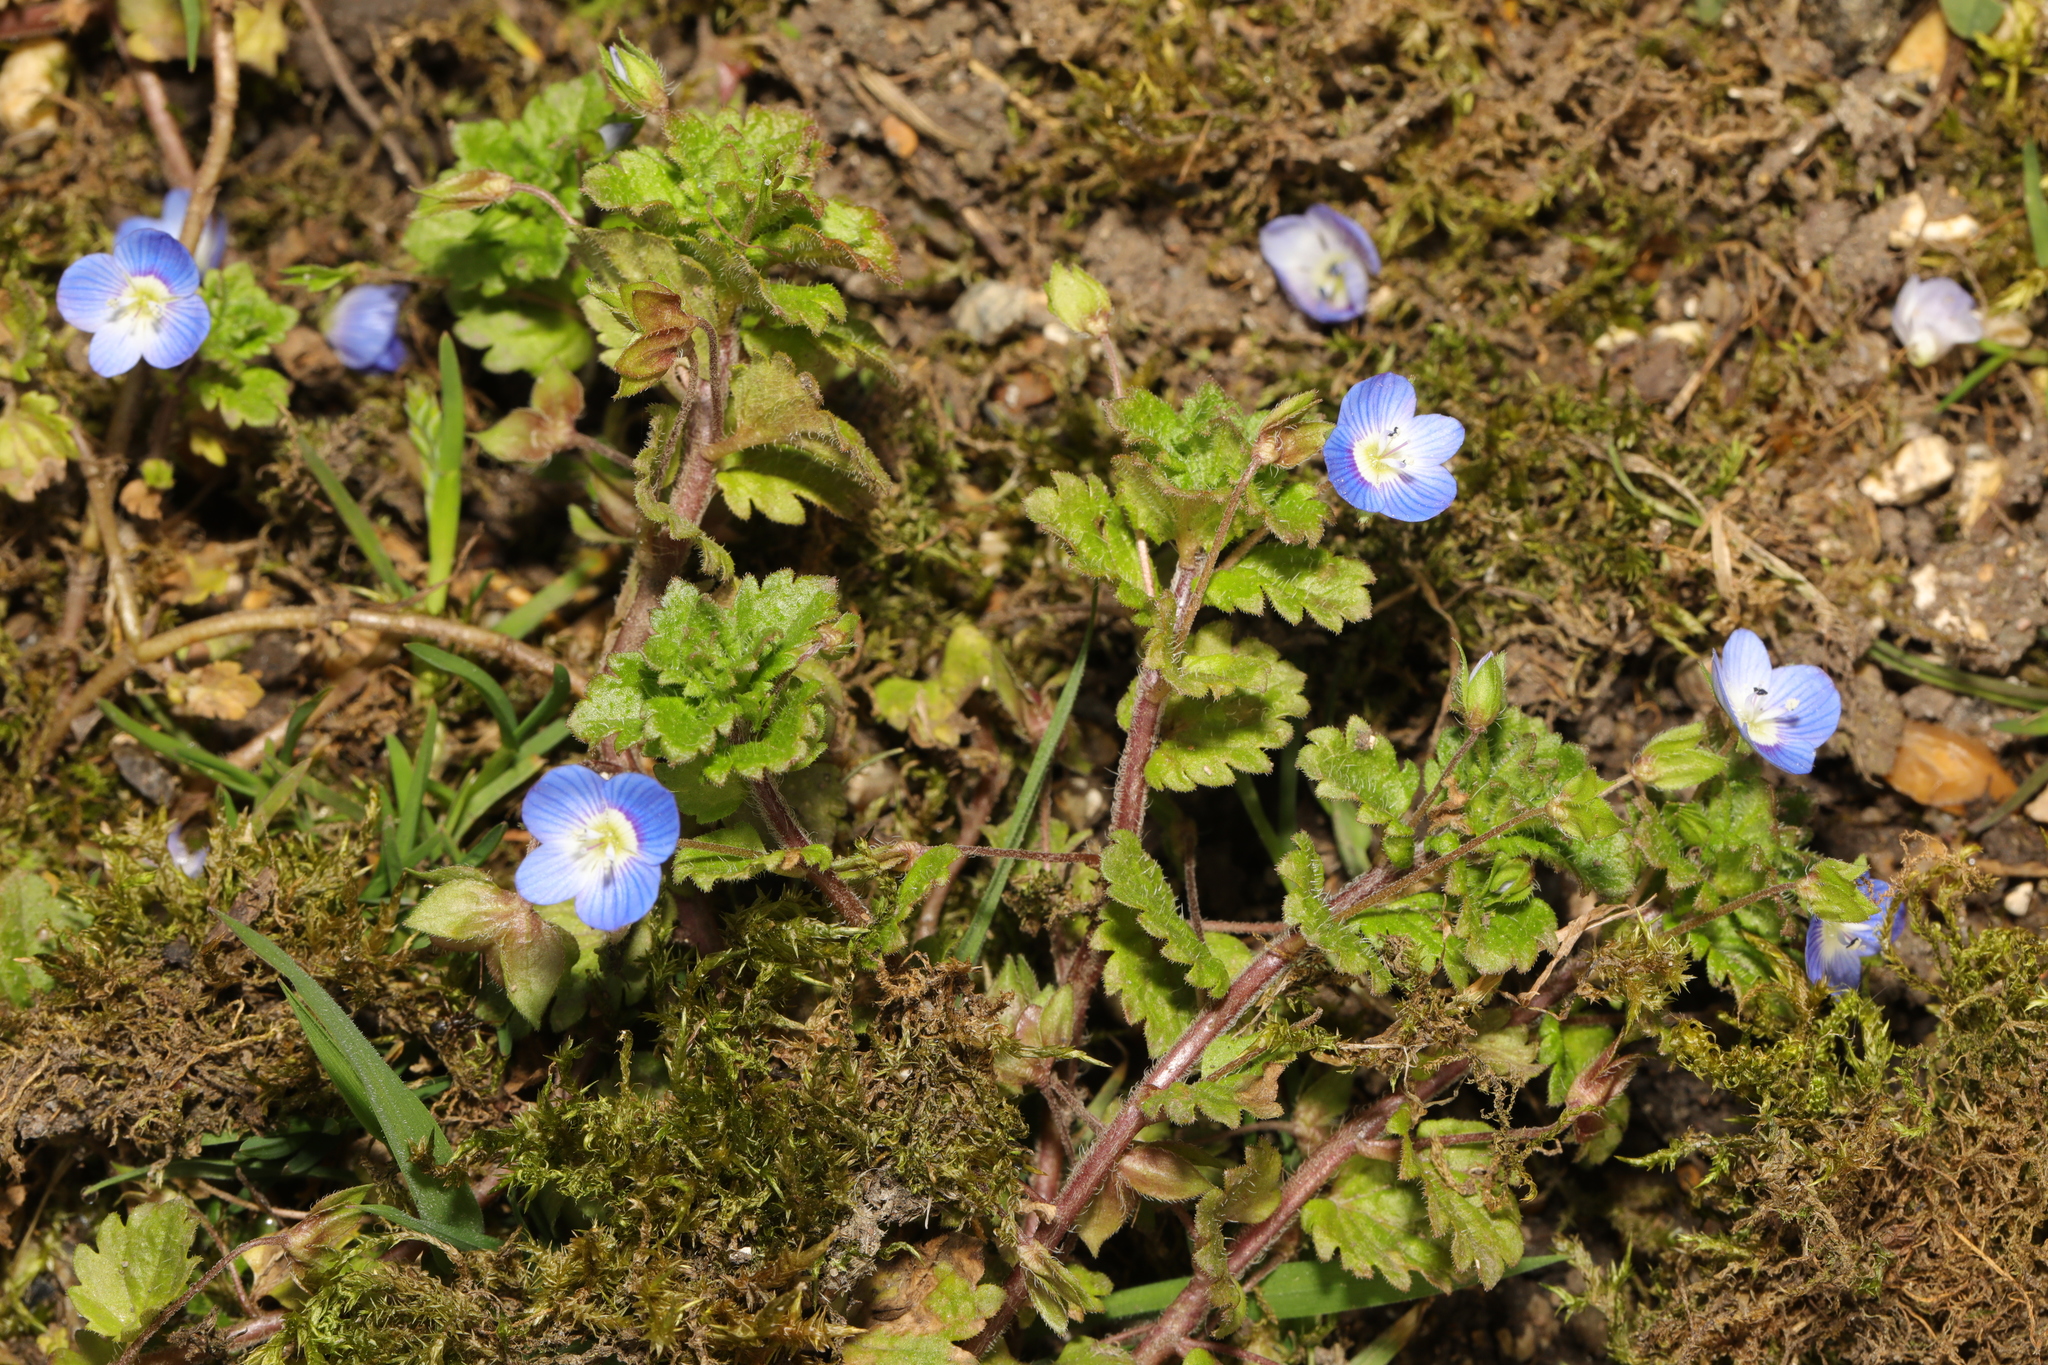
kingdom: Plantae
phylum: Tracheophyta
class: Magnoliopsida
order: Lamiales
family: Plantaginaceae
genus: Veronica
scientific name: Veronica persica
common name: Common field-speedwell
